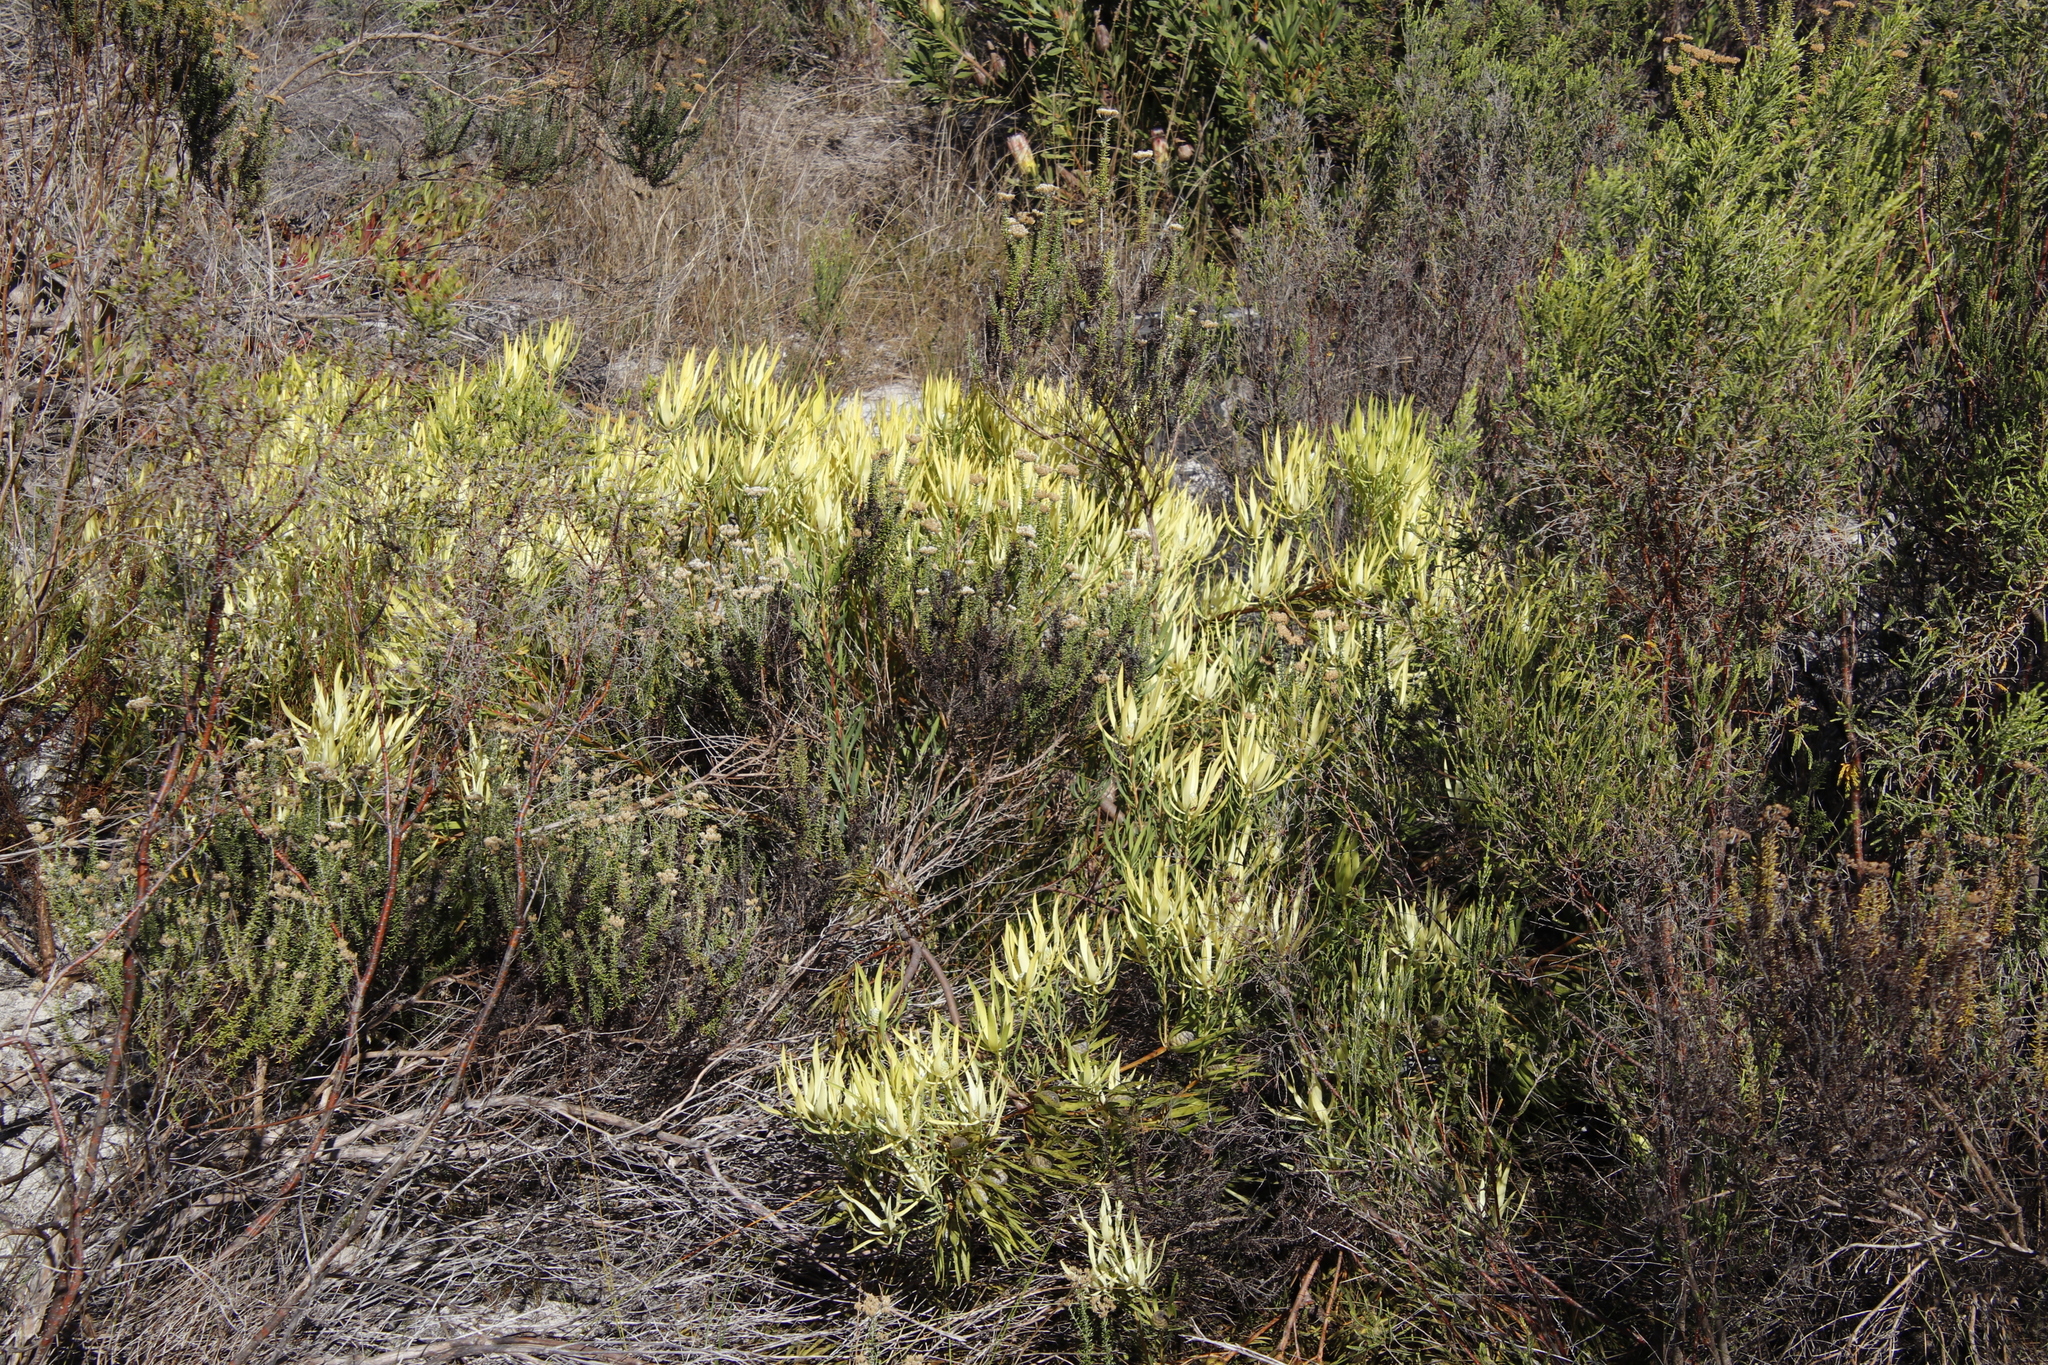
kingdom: Plantae
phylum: Tracheophyta
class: Magnoliopsida
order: Proteales
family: Proteaceae
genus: Leucadendron
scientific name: Leucadendron salignum
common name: Common sunshine conebush
